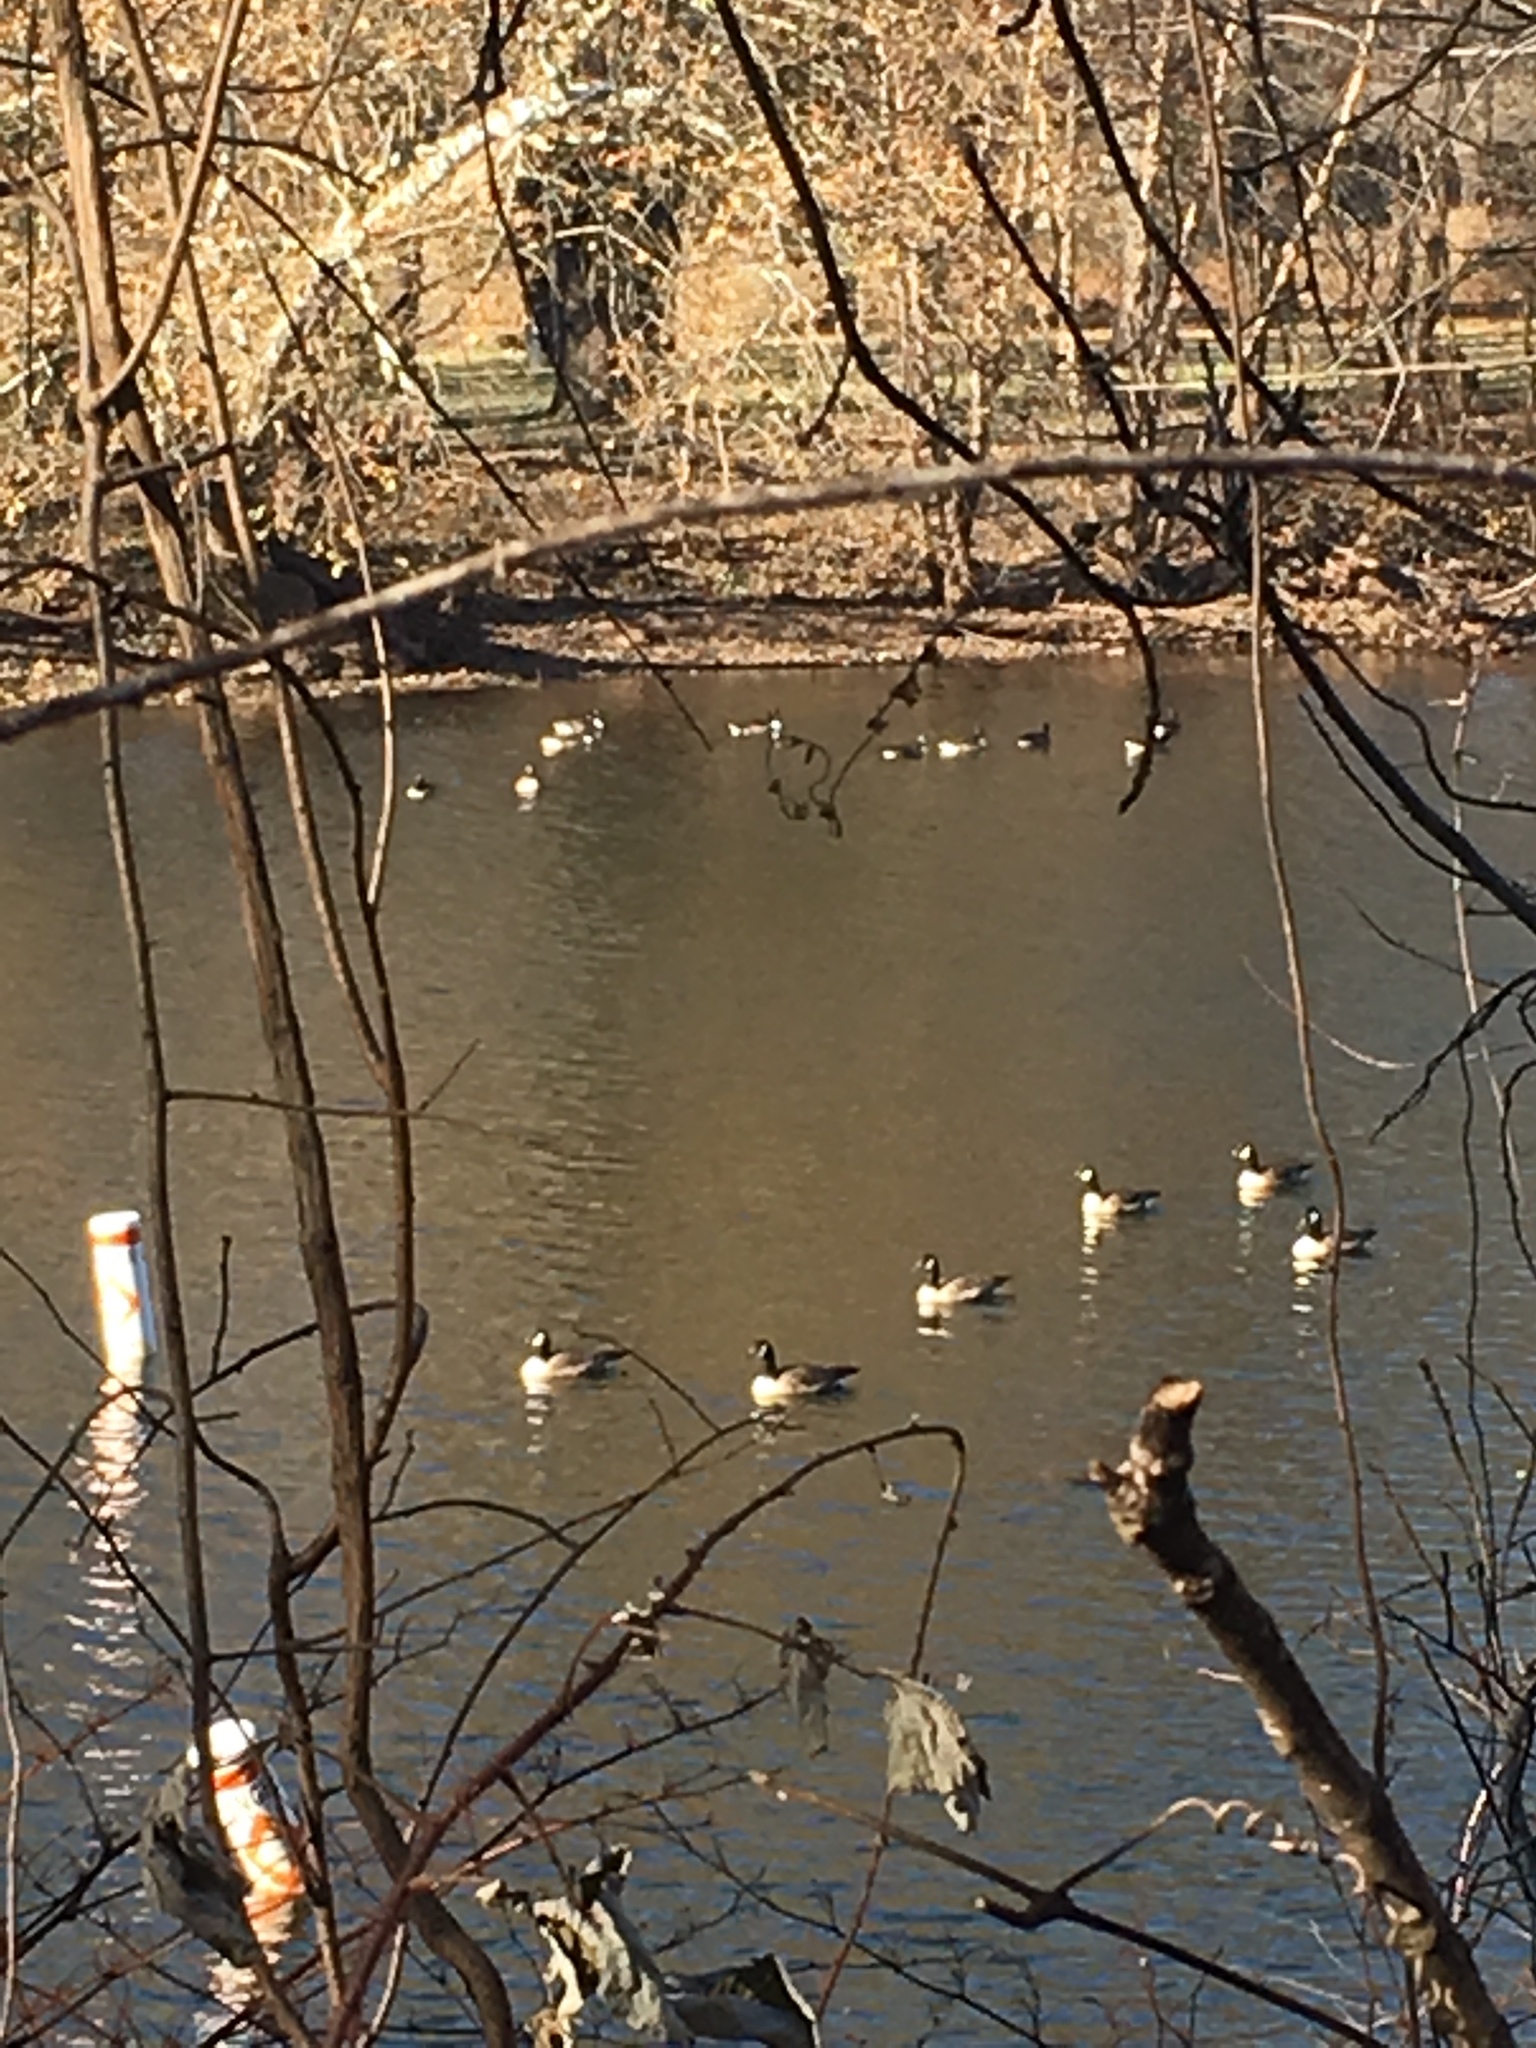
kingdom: Animalia
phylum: Chordata
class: Aves
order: Anseriformes
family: Anatidae
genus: Branta
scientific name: Branta canadensis
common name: Canada goose
